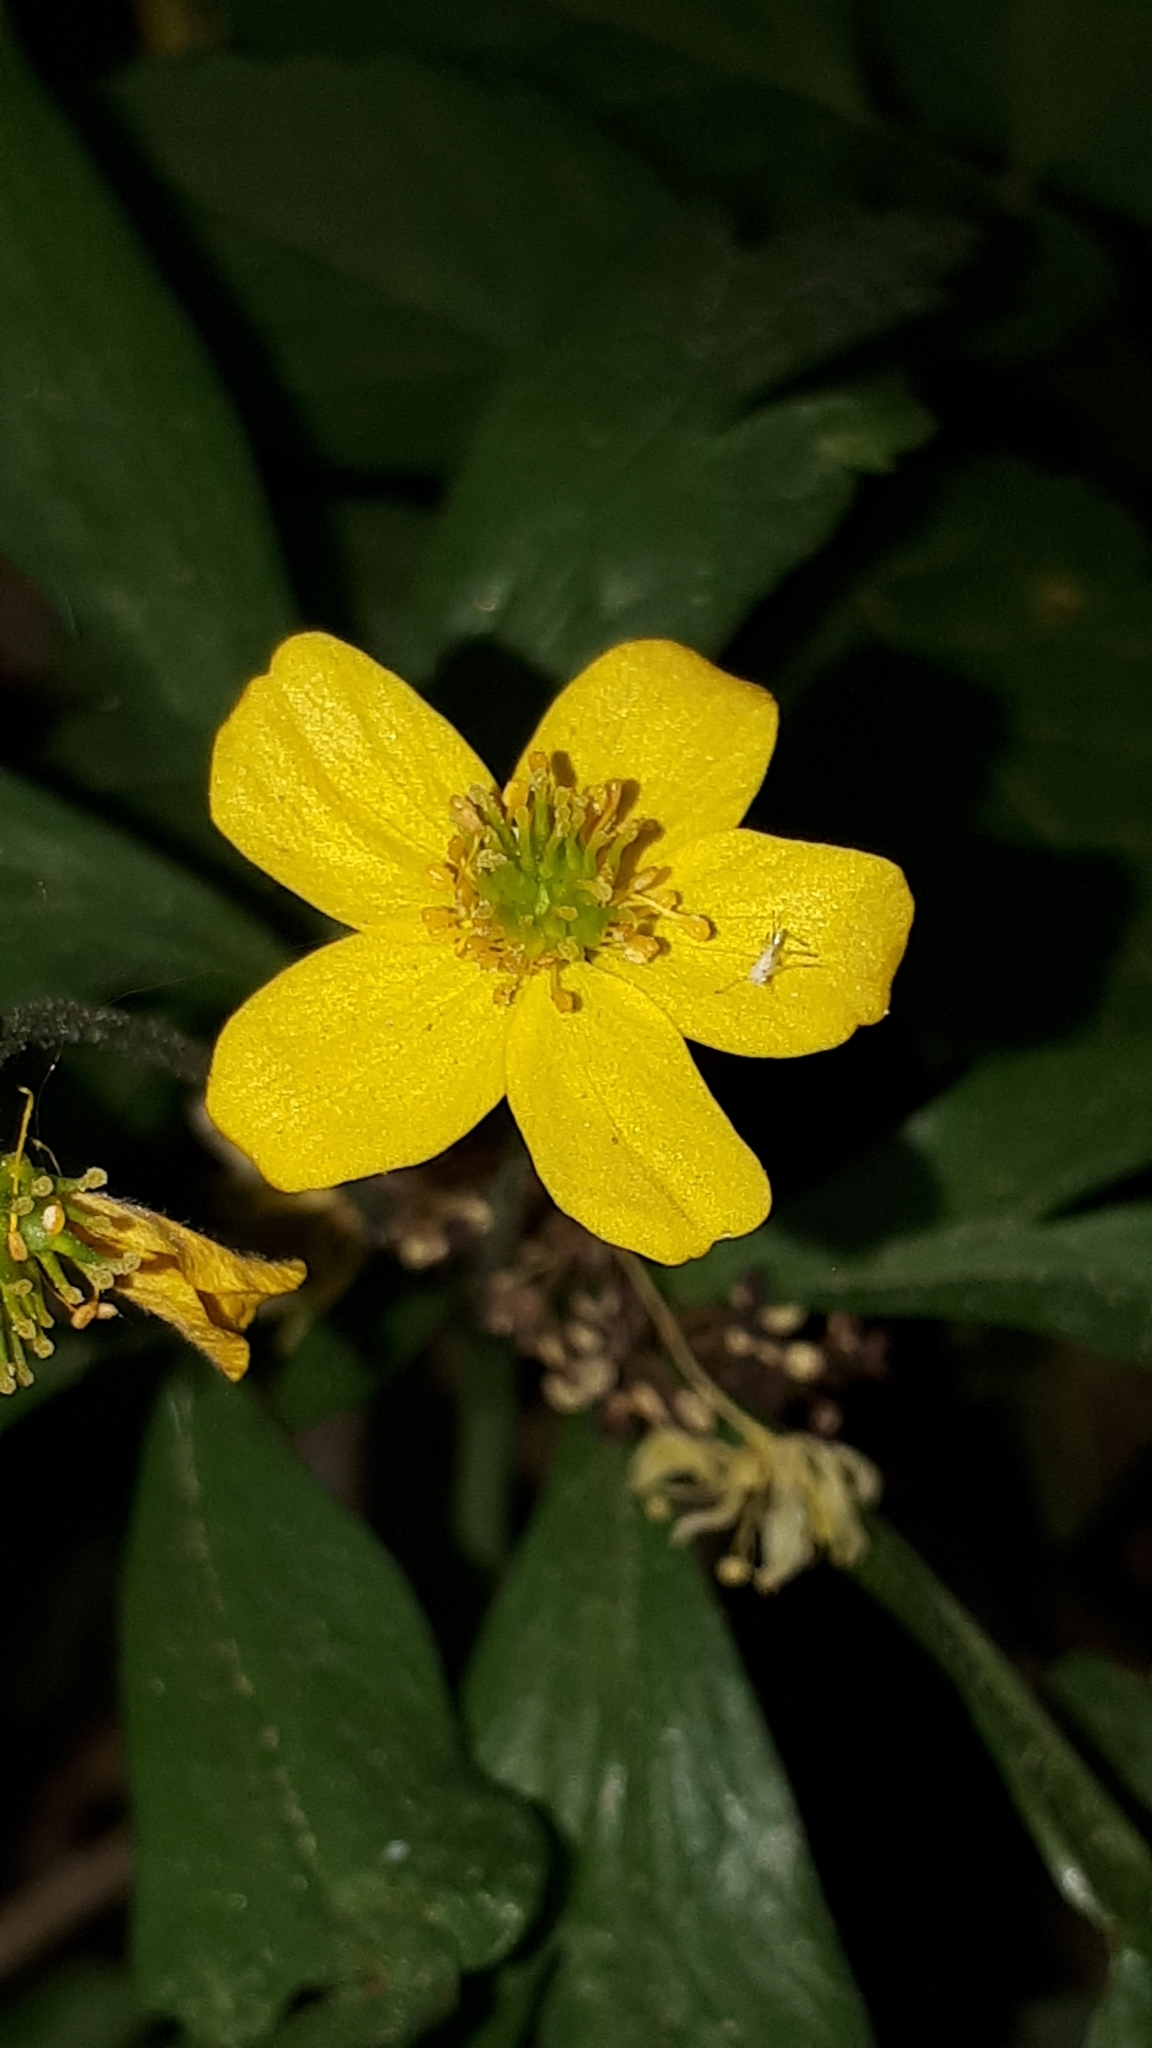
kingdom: Plantae
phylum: Tracheophyta
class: Magnoliopsida
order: Ranunculales
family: Ranunculaceae
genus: Anemone
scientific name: Anemone ranunculoides
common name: Yellow anemone
